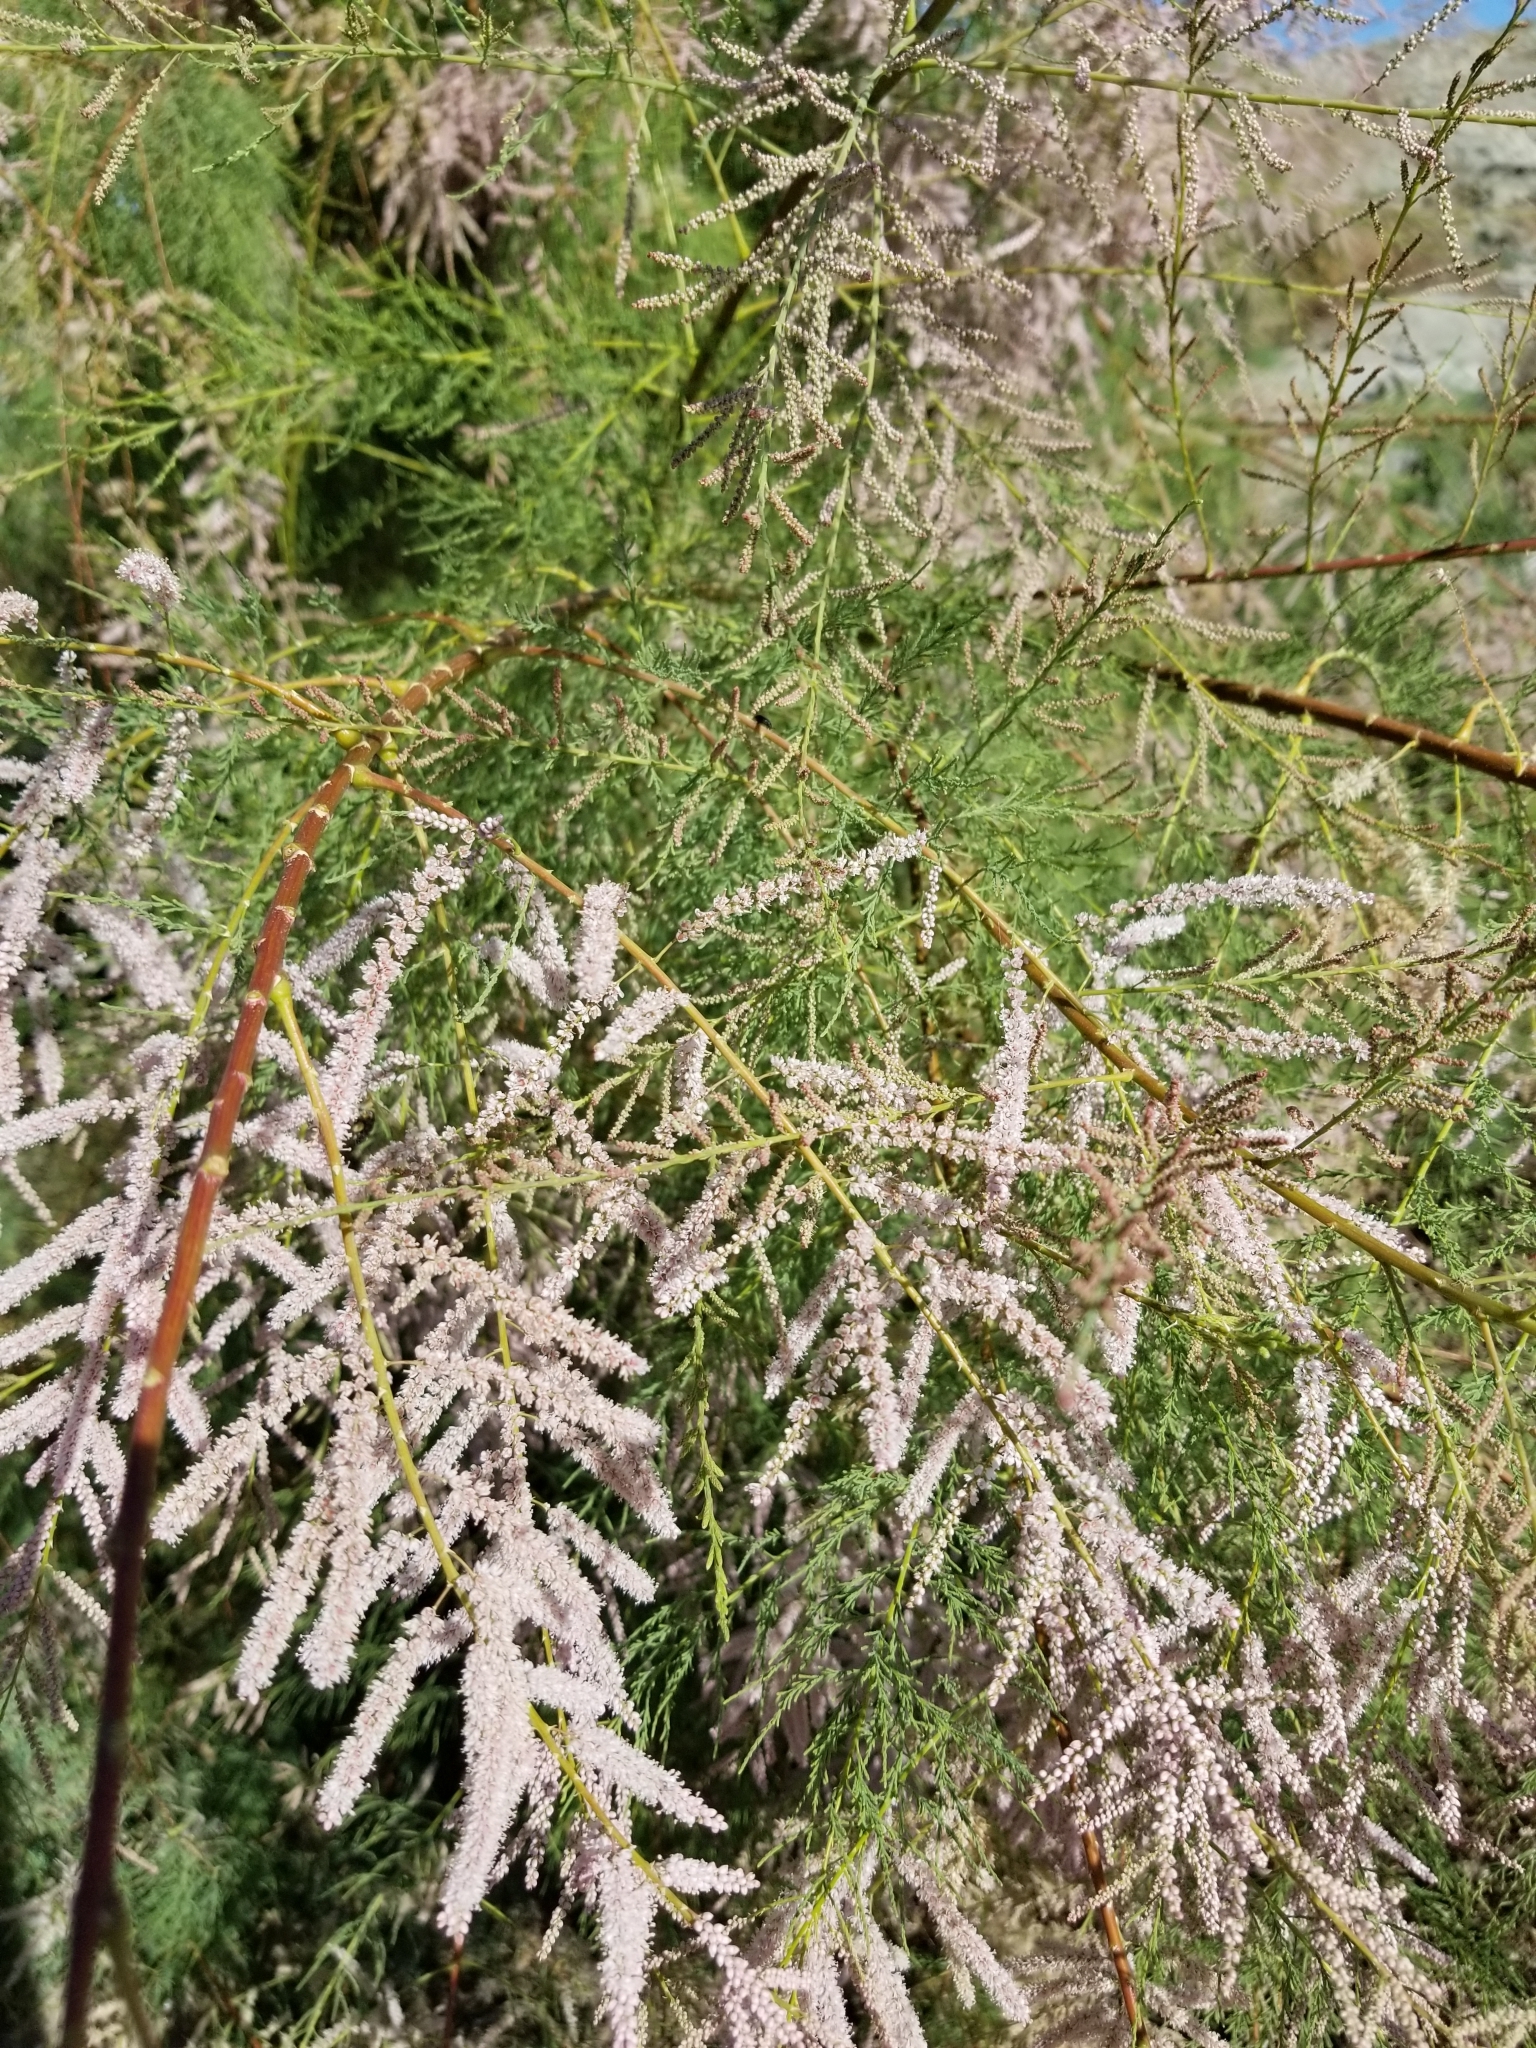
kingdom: Plantae
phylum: Tracheophyta
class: Magnoliopsida
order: Caryophyllales
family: Tamaricaceae
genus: Tamarix
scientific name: Tamarix ramosissima
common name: Pink tamarisk
